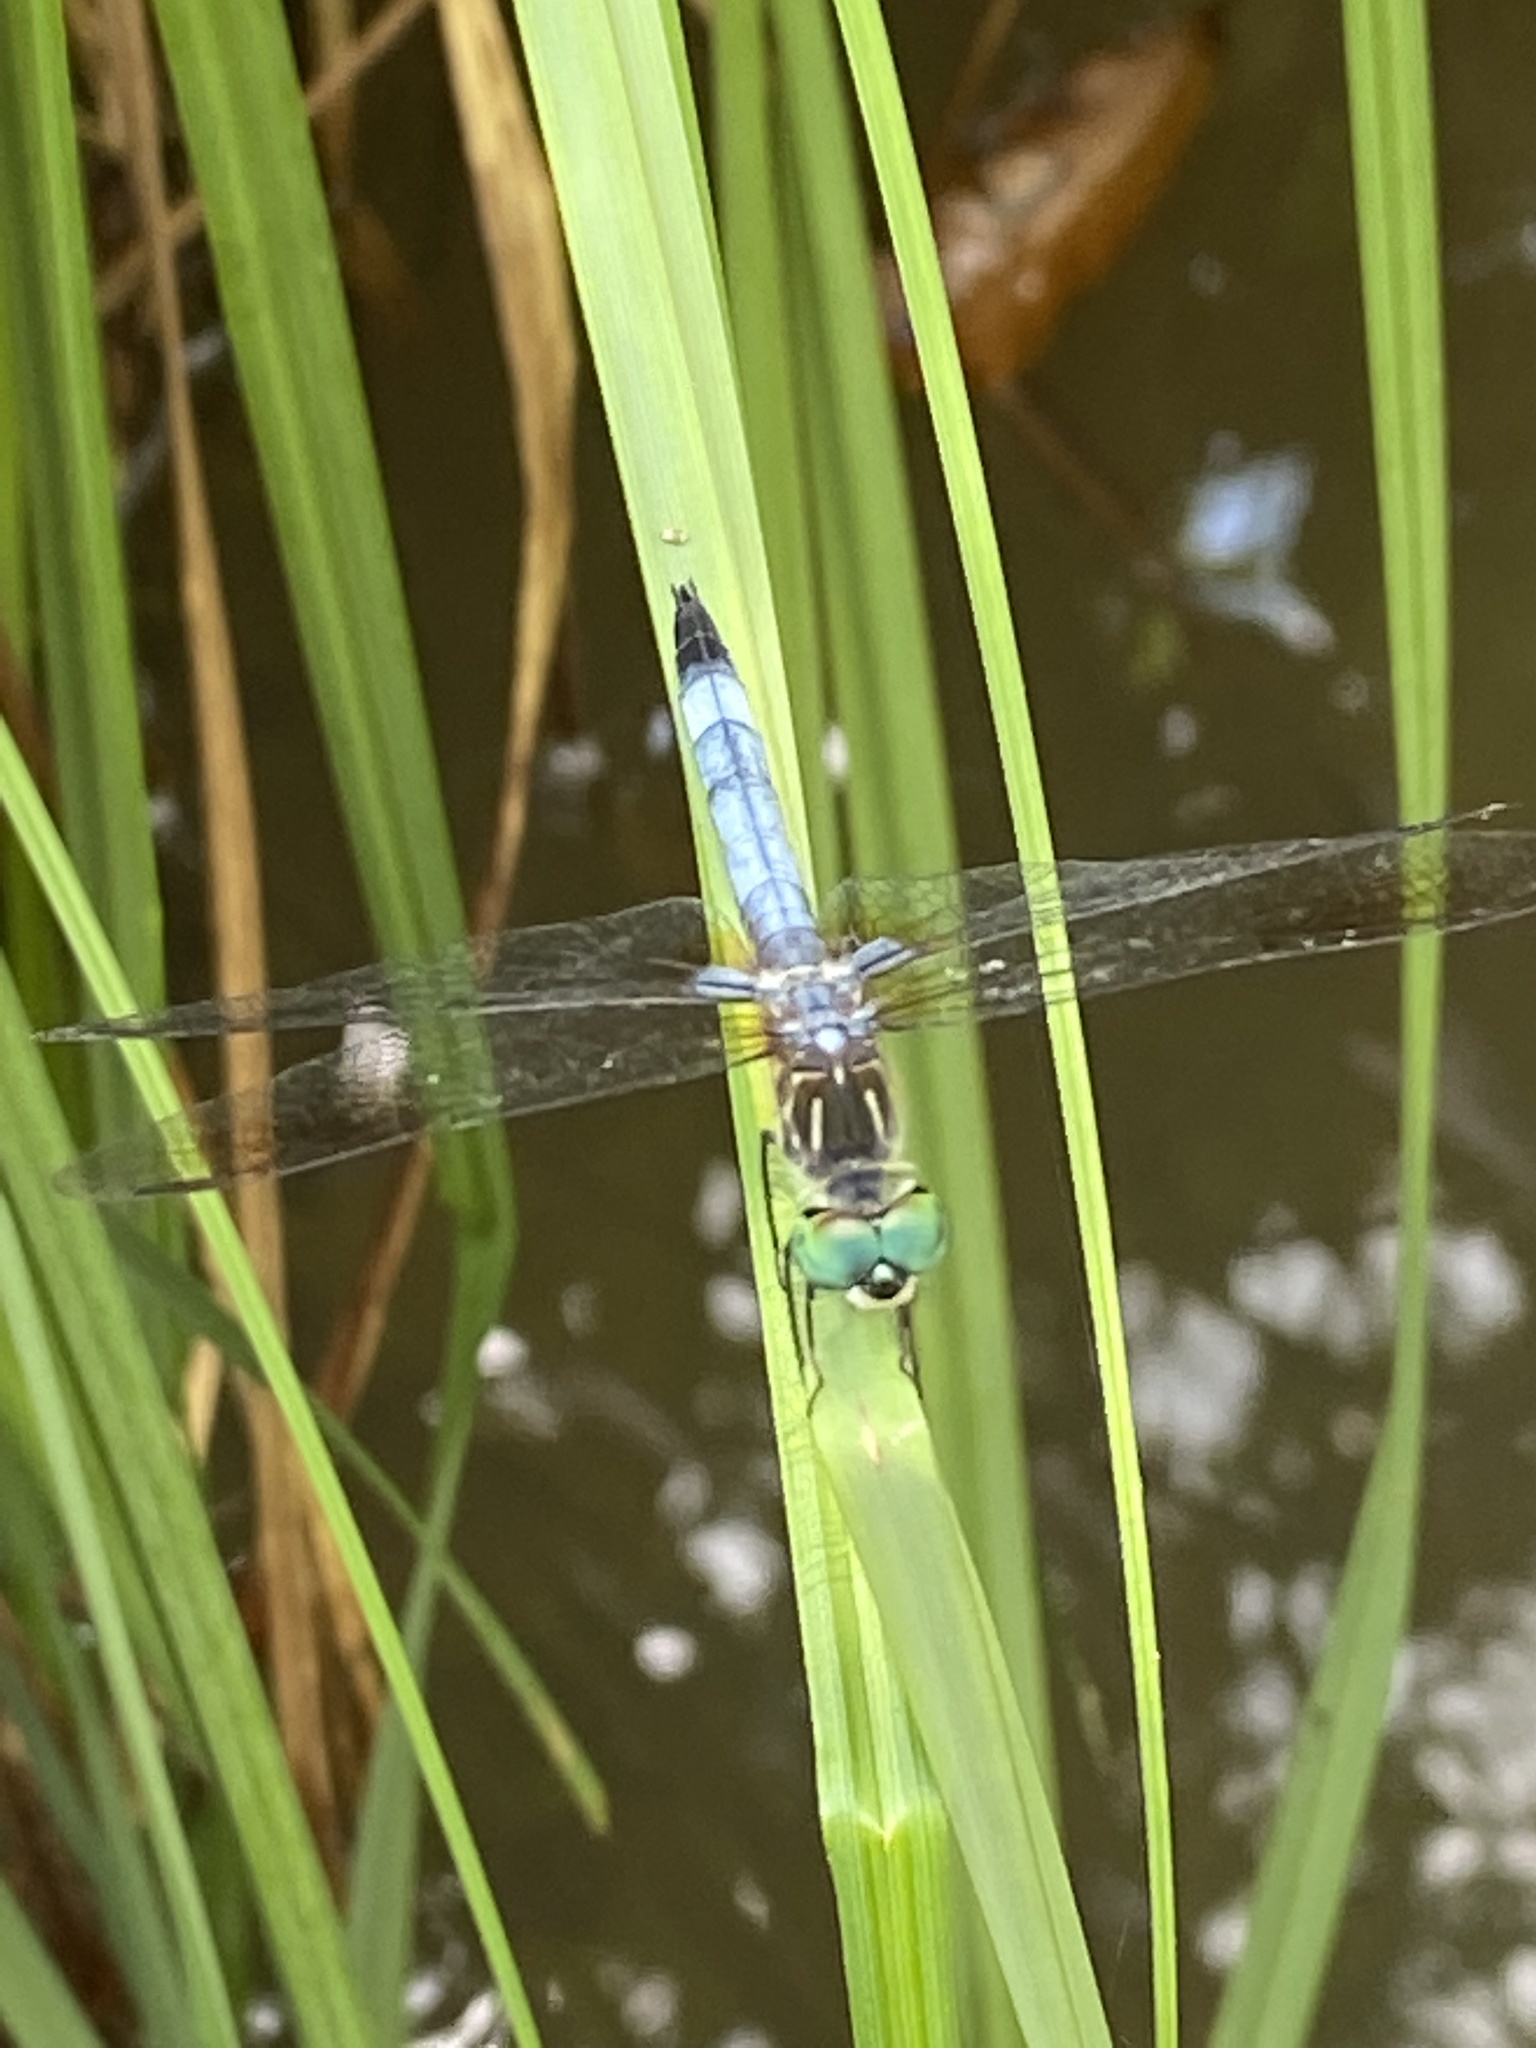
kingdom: Animalia
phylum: Arthropoda
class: Insecta
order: Odonata
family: Libellulidae
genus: Pachydiplax
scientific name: Pachydiplax longipennis
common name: Blue dasher
